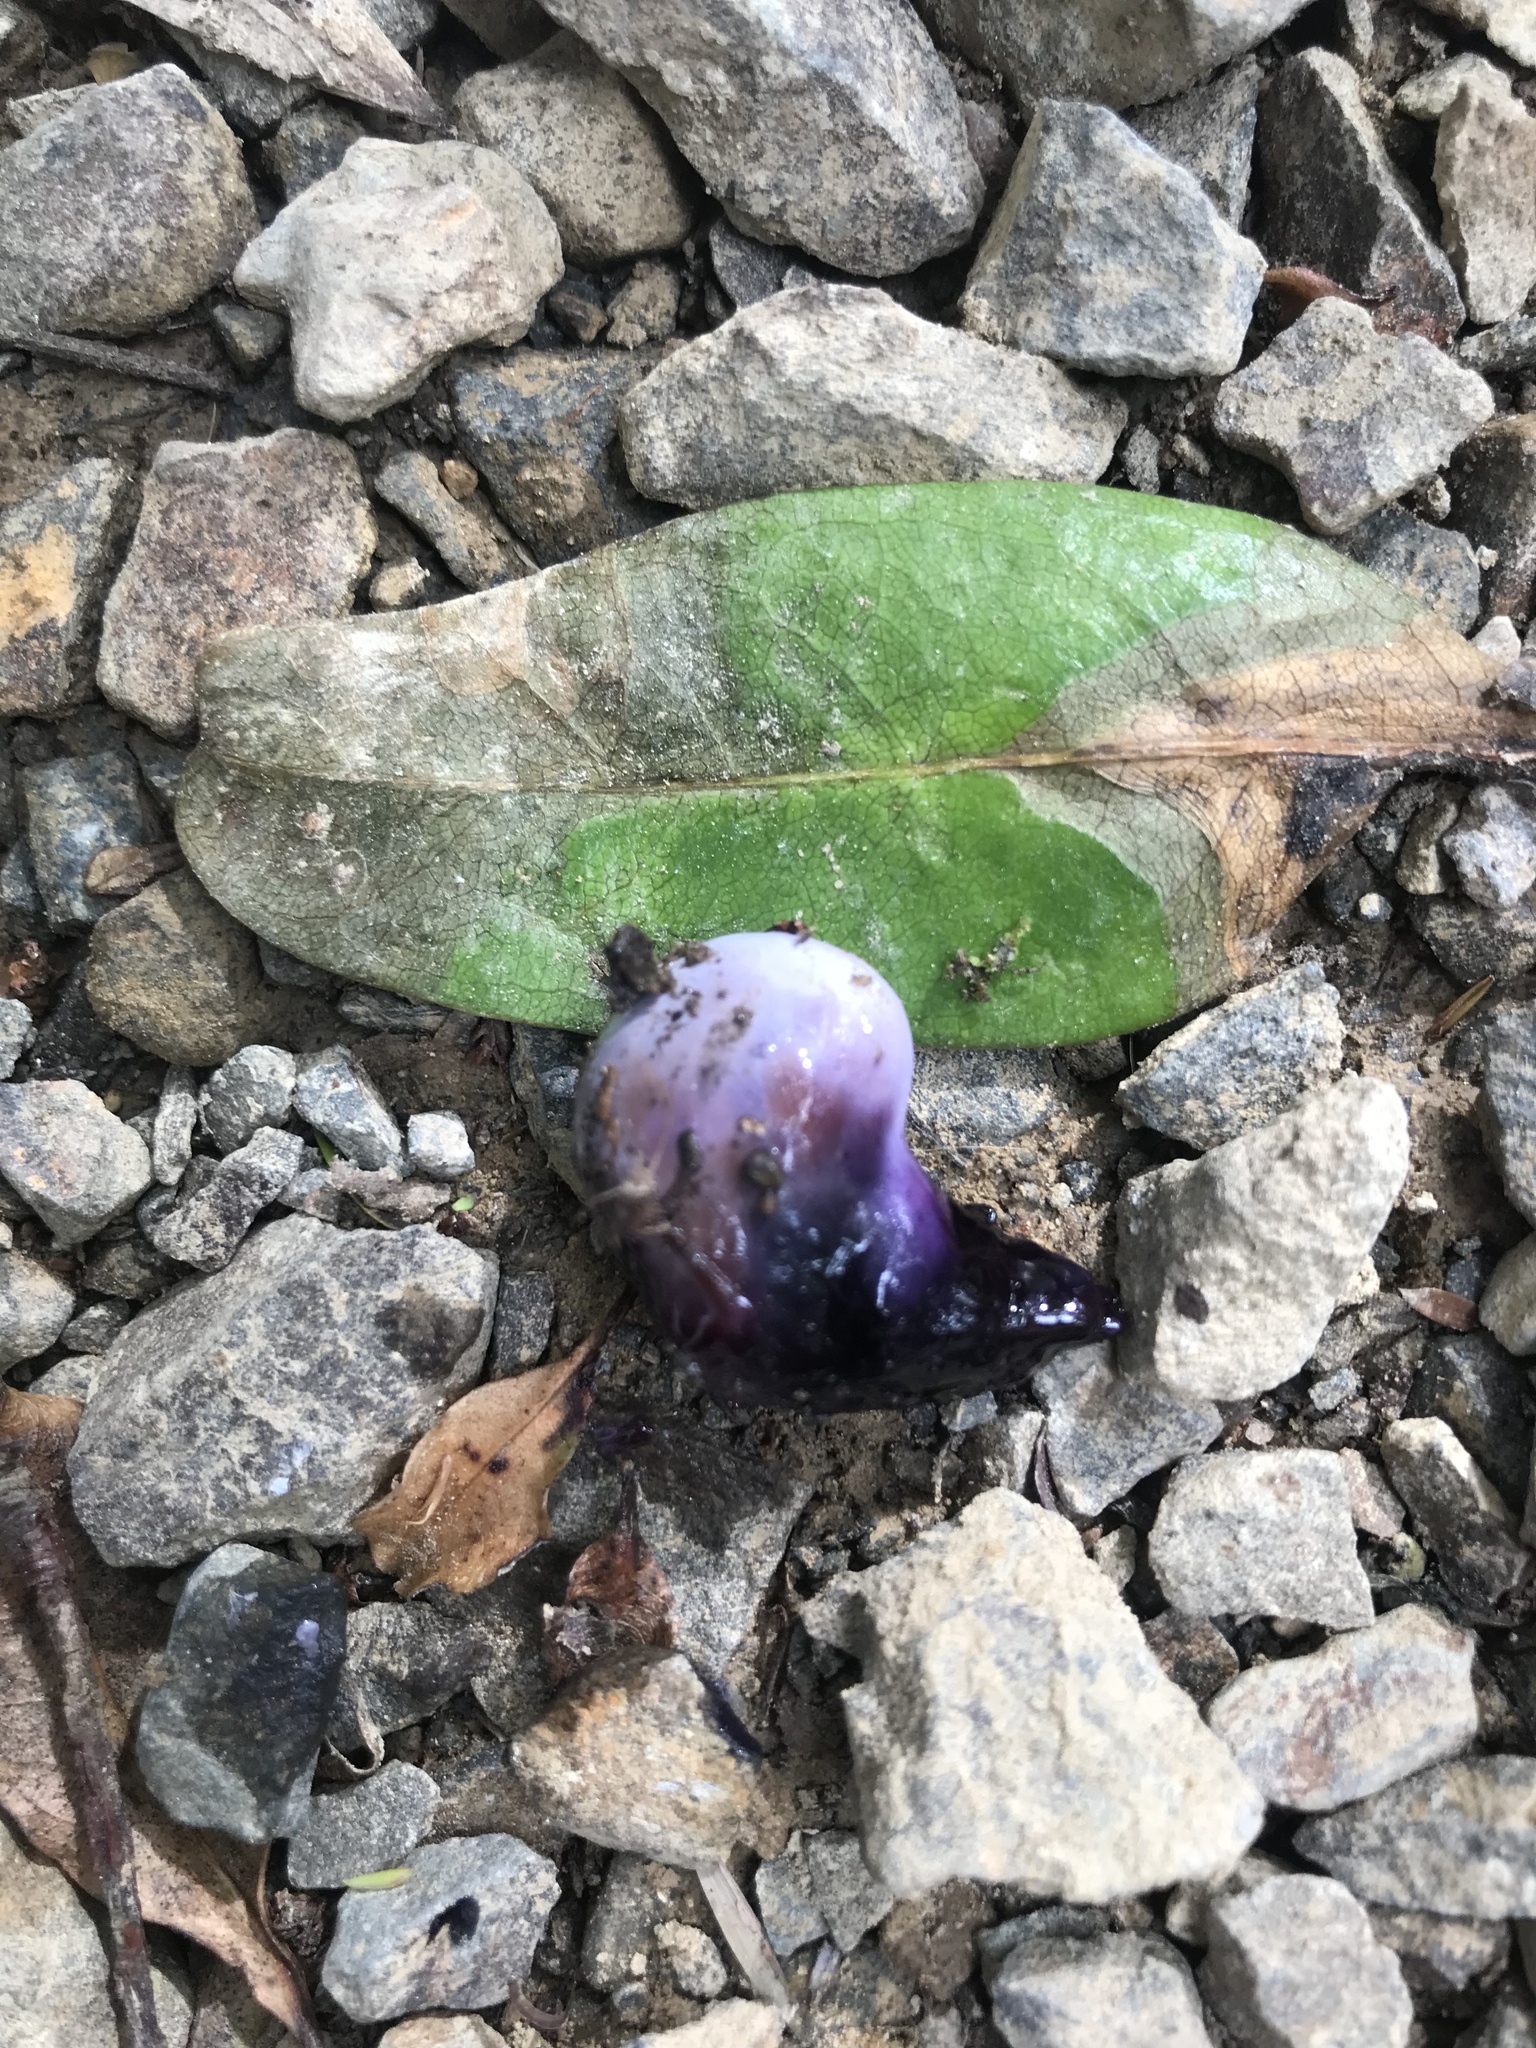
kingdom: Animalia
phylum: Chordata
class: Aves
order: Columbiformes
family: Columbidae
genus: Hemiphaga
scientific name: Hemiphaga novaeseelandiae
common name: New zealand pigeon
